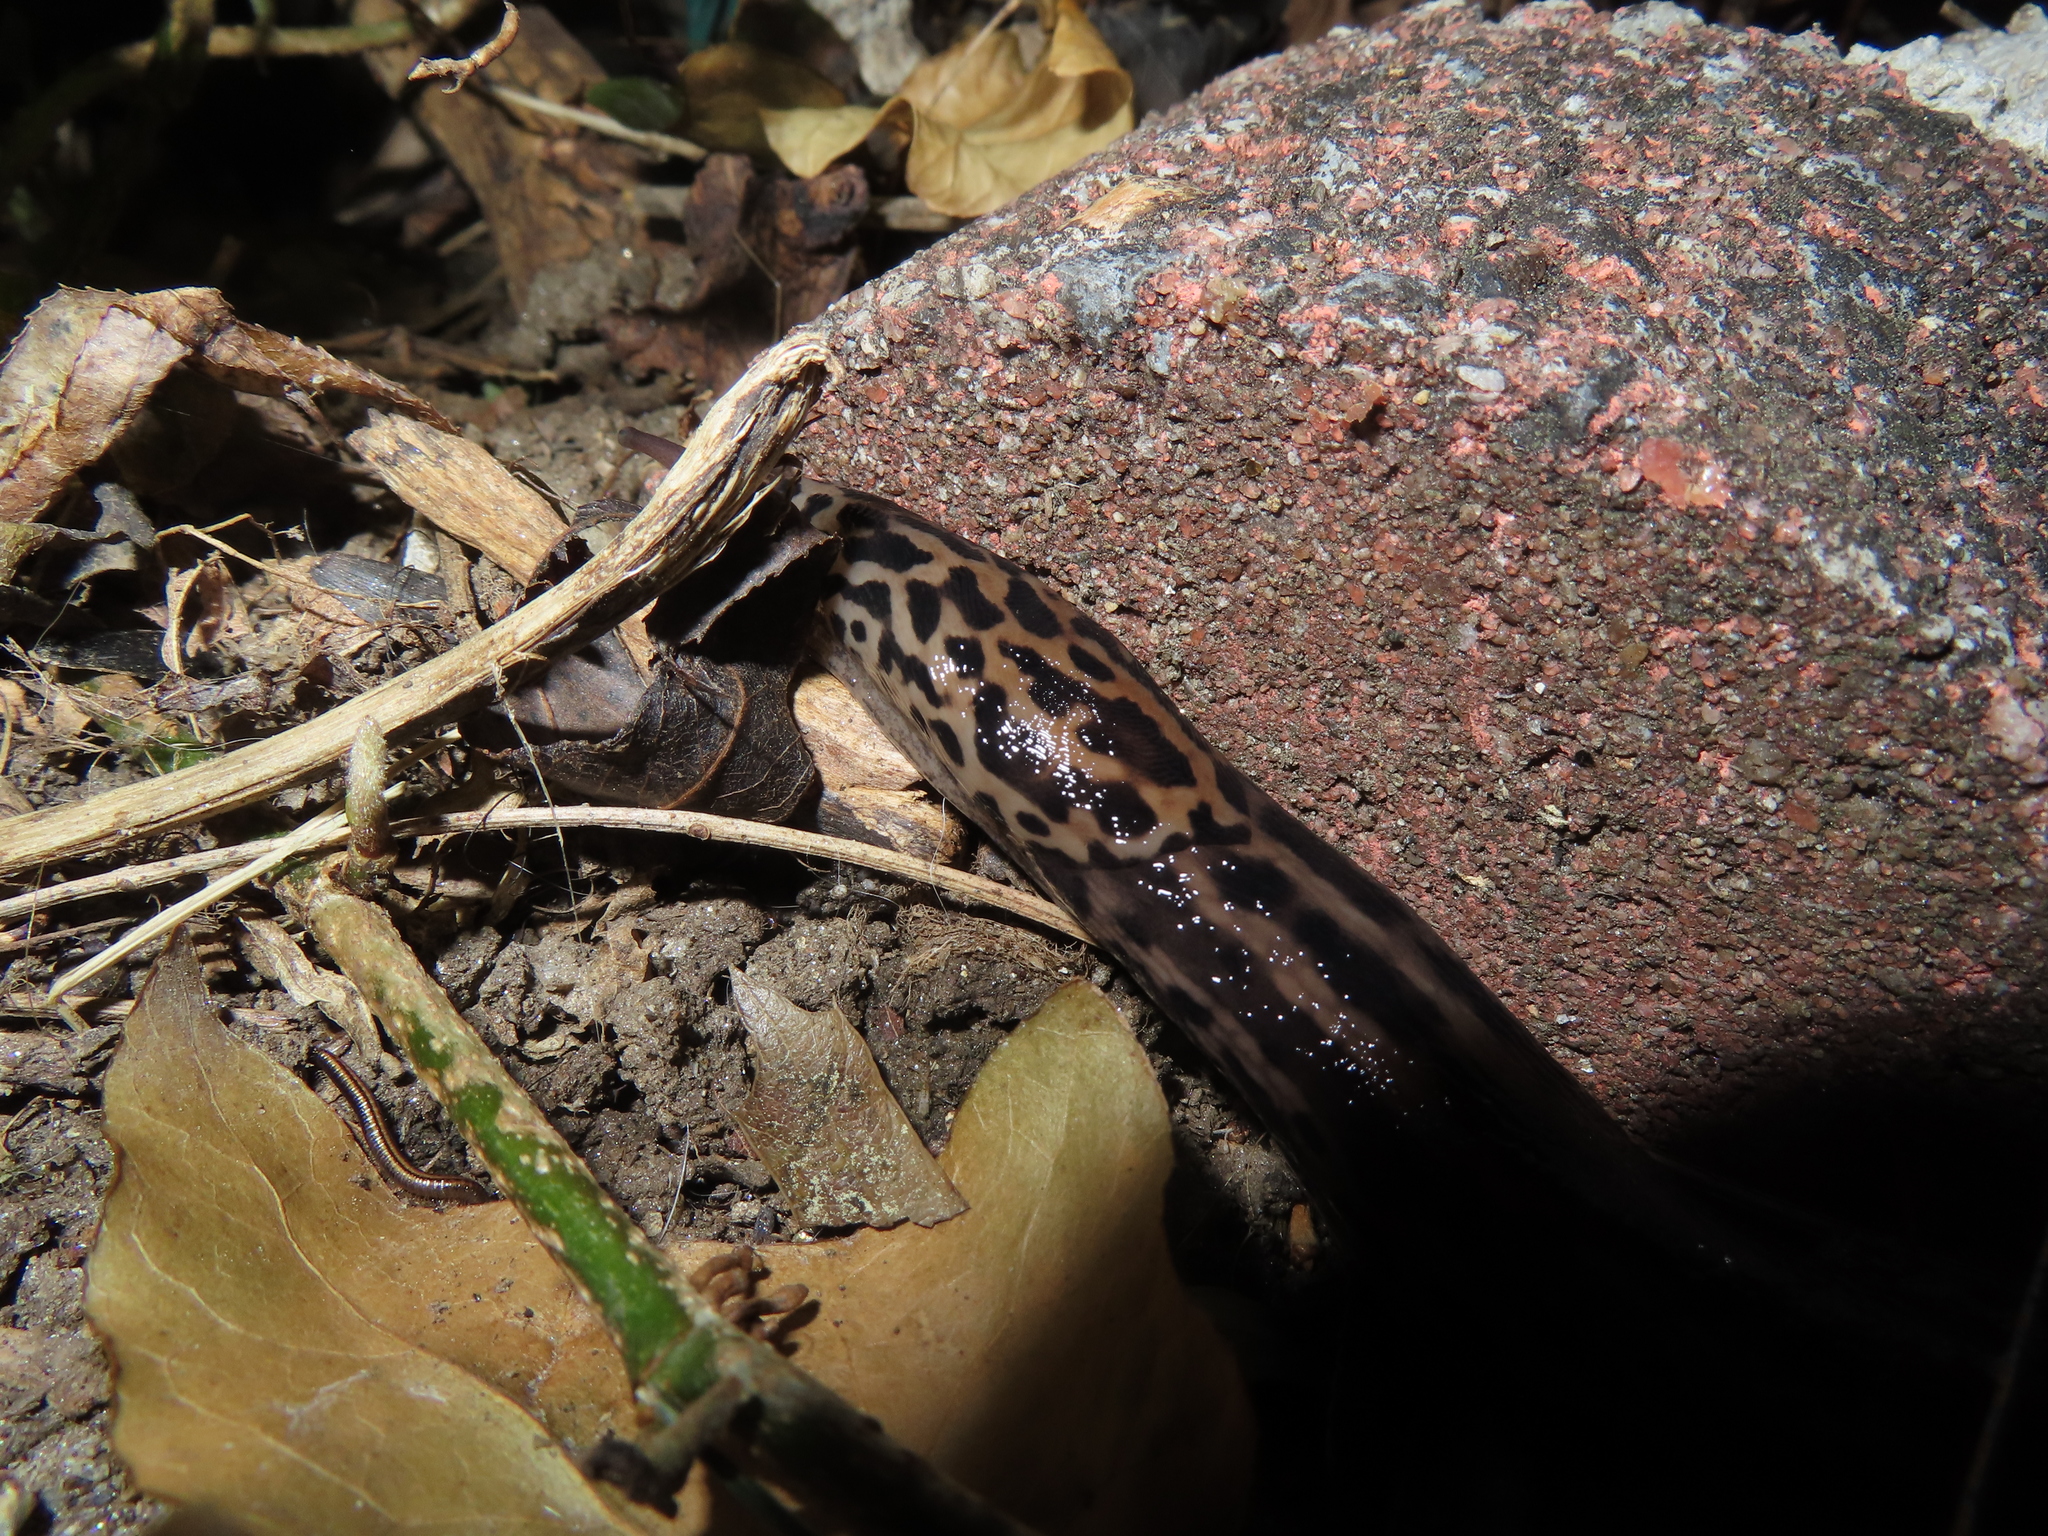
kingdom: Animalia
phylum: Mollusca
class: Gastropoda
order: Stylommatophora
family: Limacidae
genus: Limax
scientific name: Limax maximus
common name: Great grey slug
